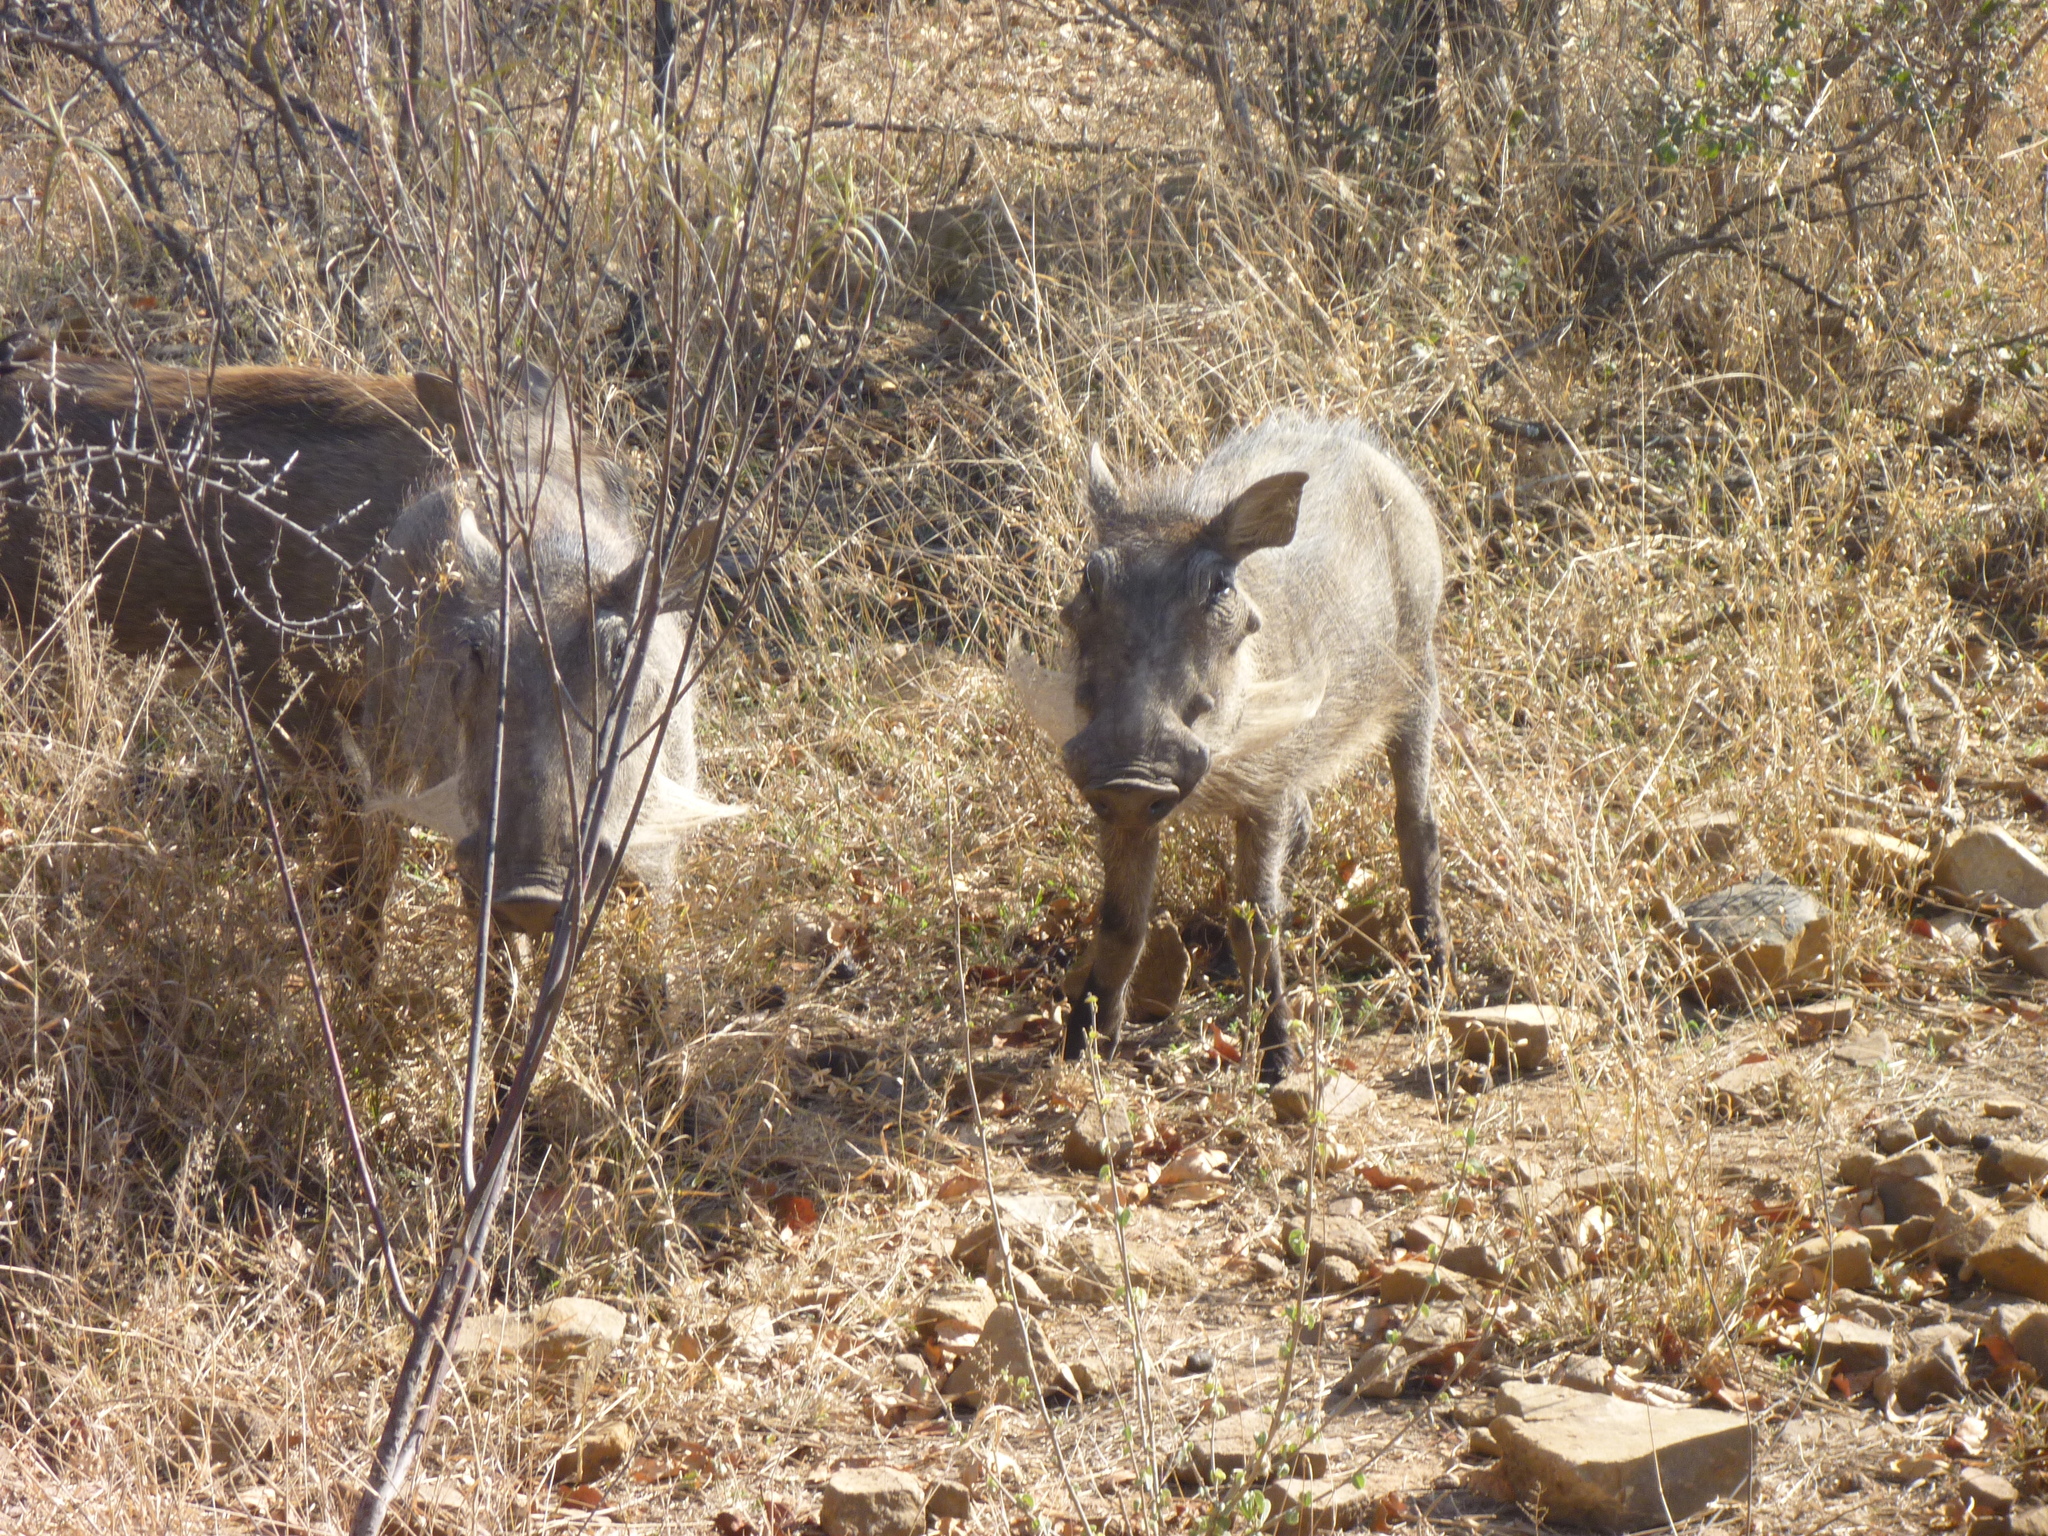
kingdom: Animalia
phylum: Chordata
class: Mammalia
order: Artiodactyla
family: Suidae
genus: Phacochoerus
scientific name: Phacochoerus africanus
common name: Common warthog
